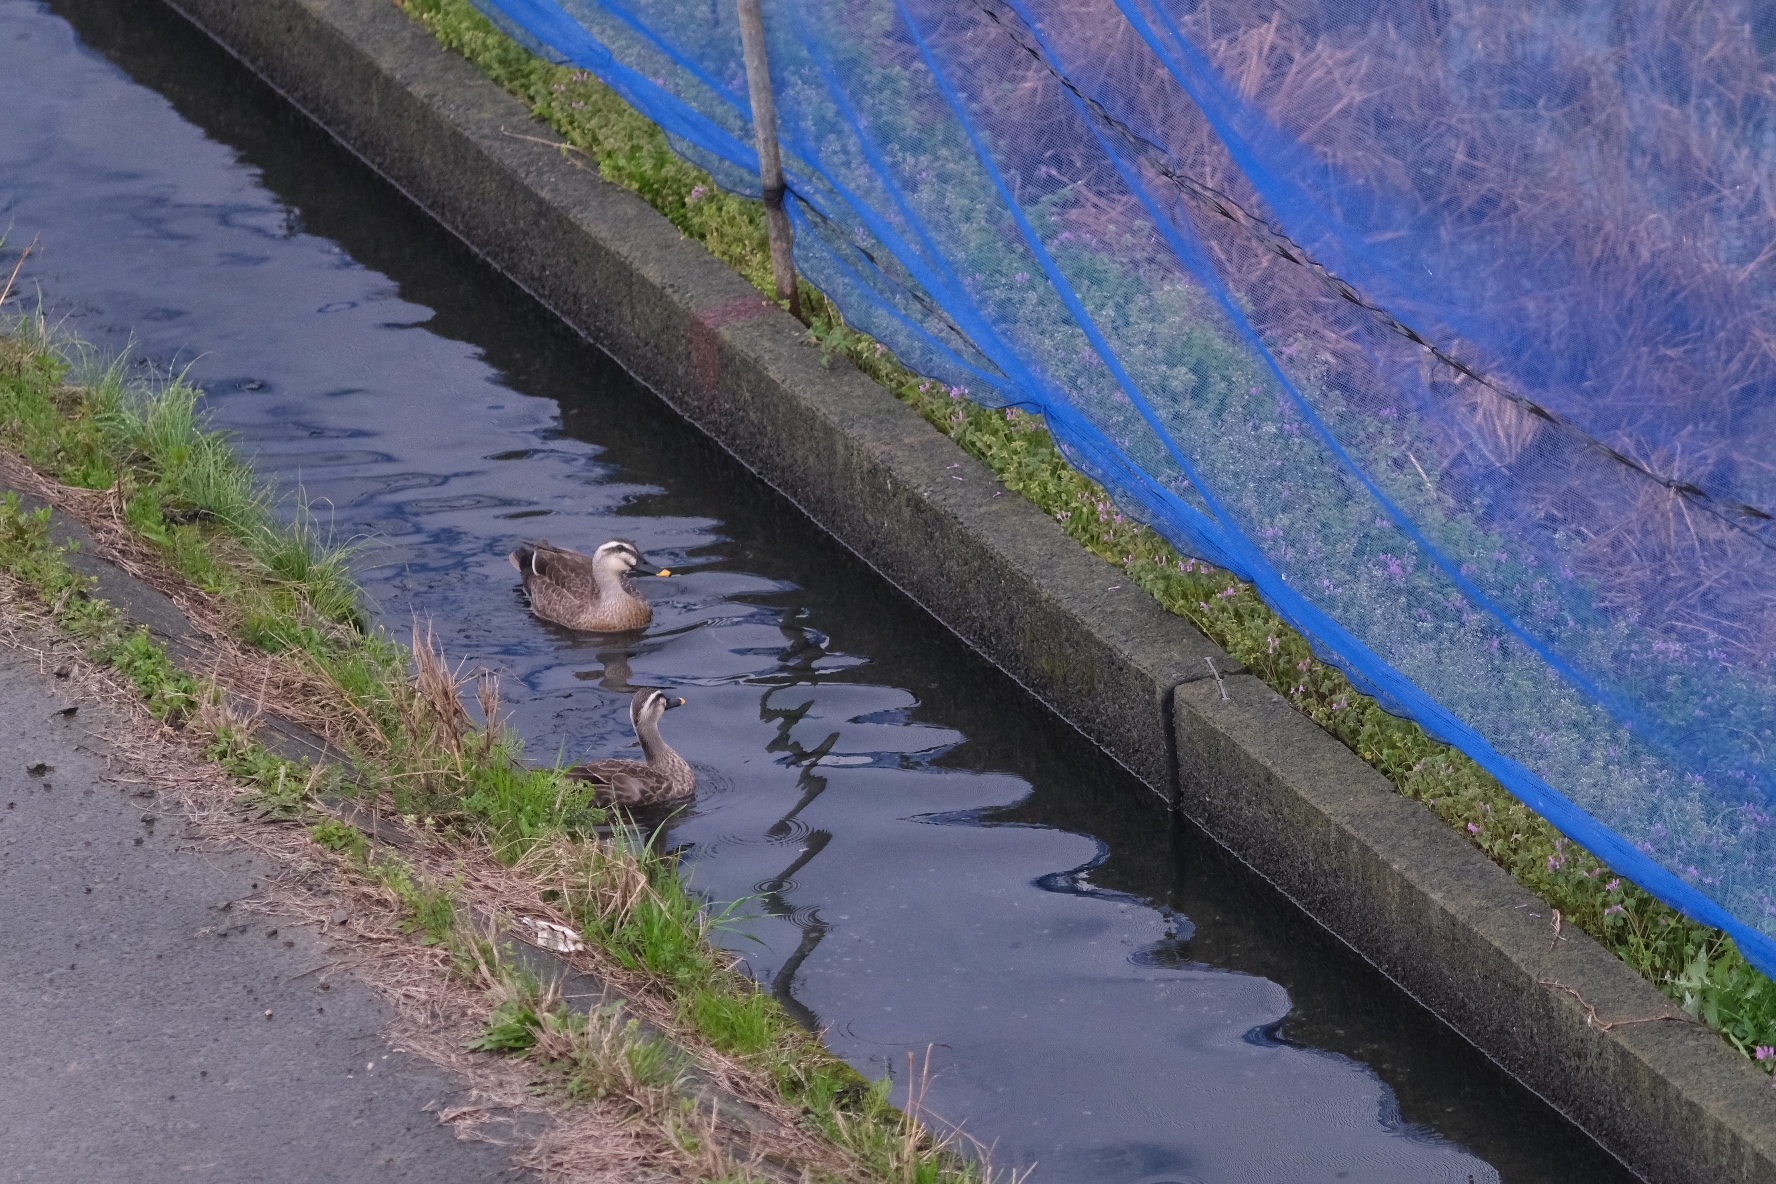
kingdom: Animalia
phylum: Chordata
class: Aves
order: Anseriformes
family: Anatidae
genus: Anas
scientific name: Anas zonorhyncha
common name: Eastern spot-billed duck
